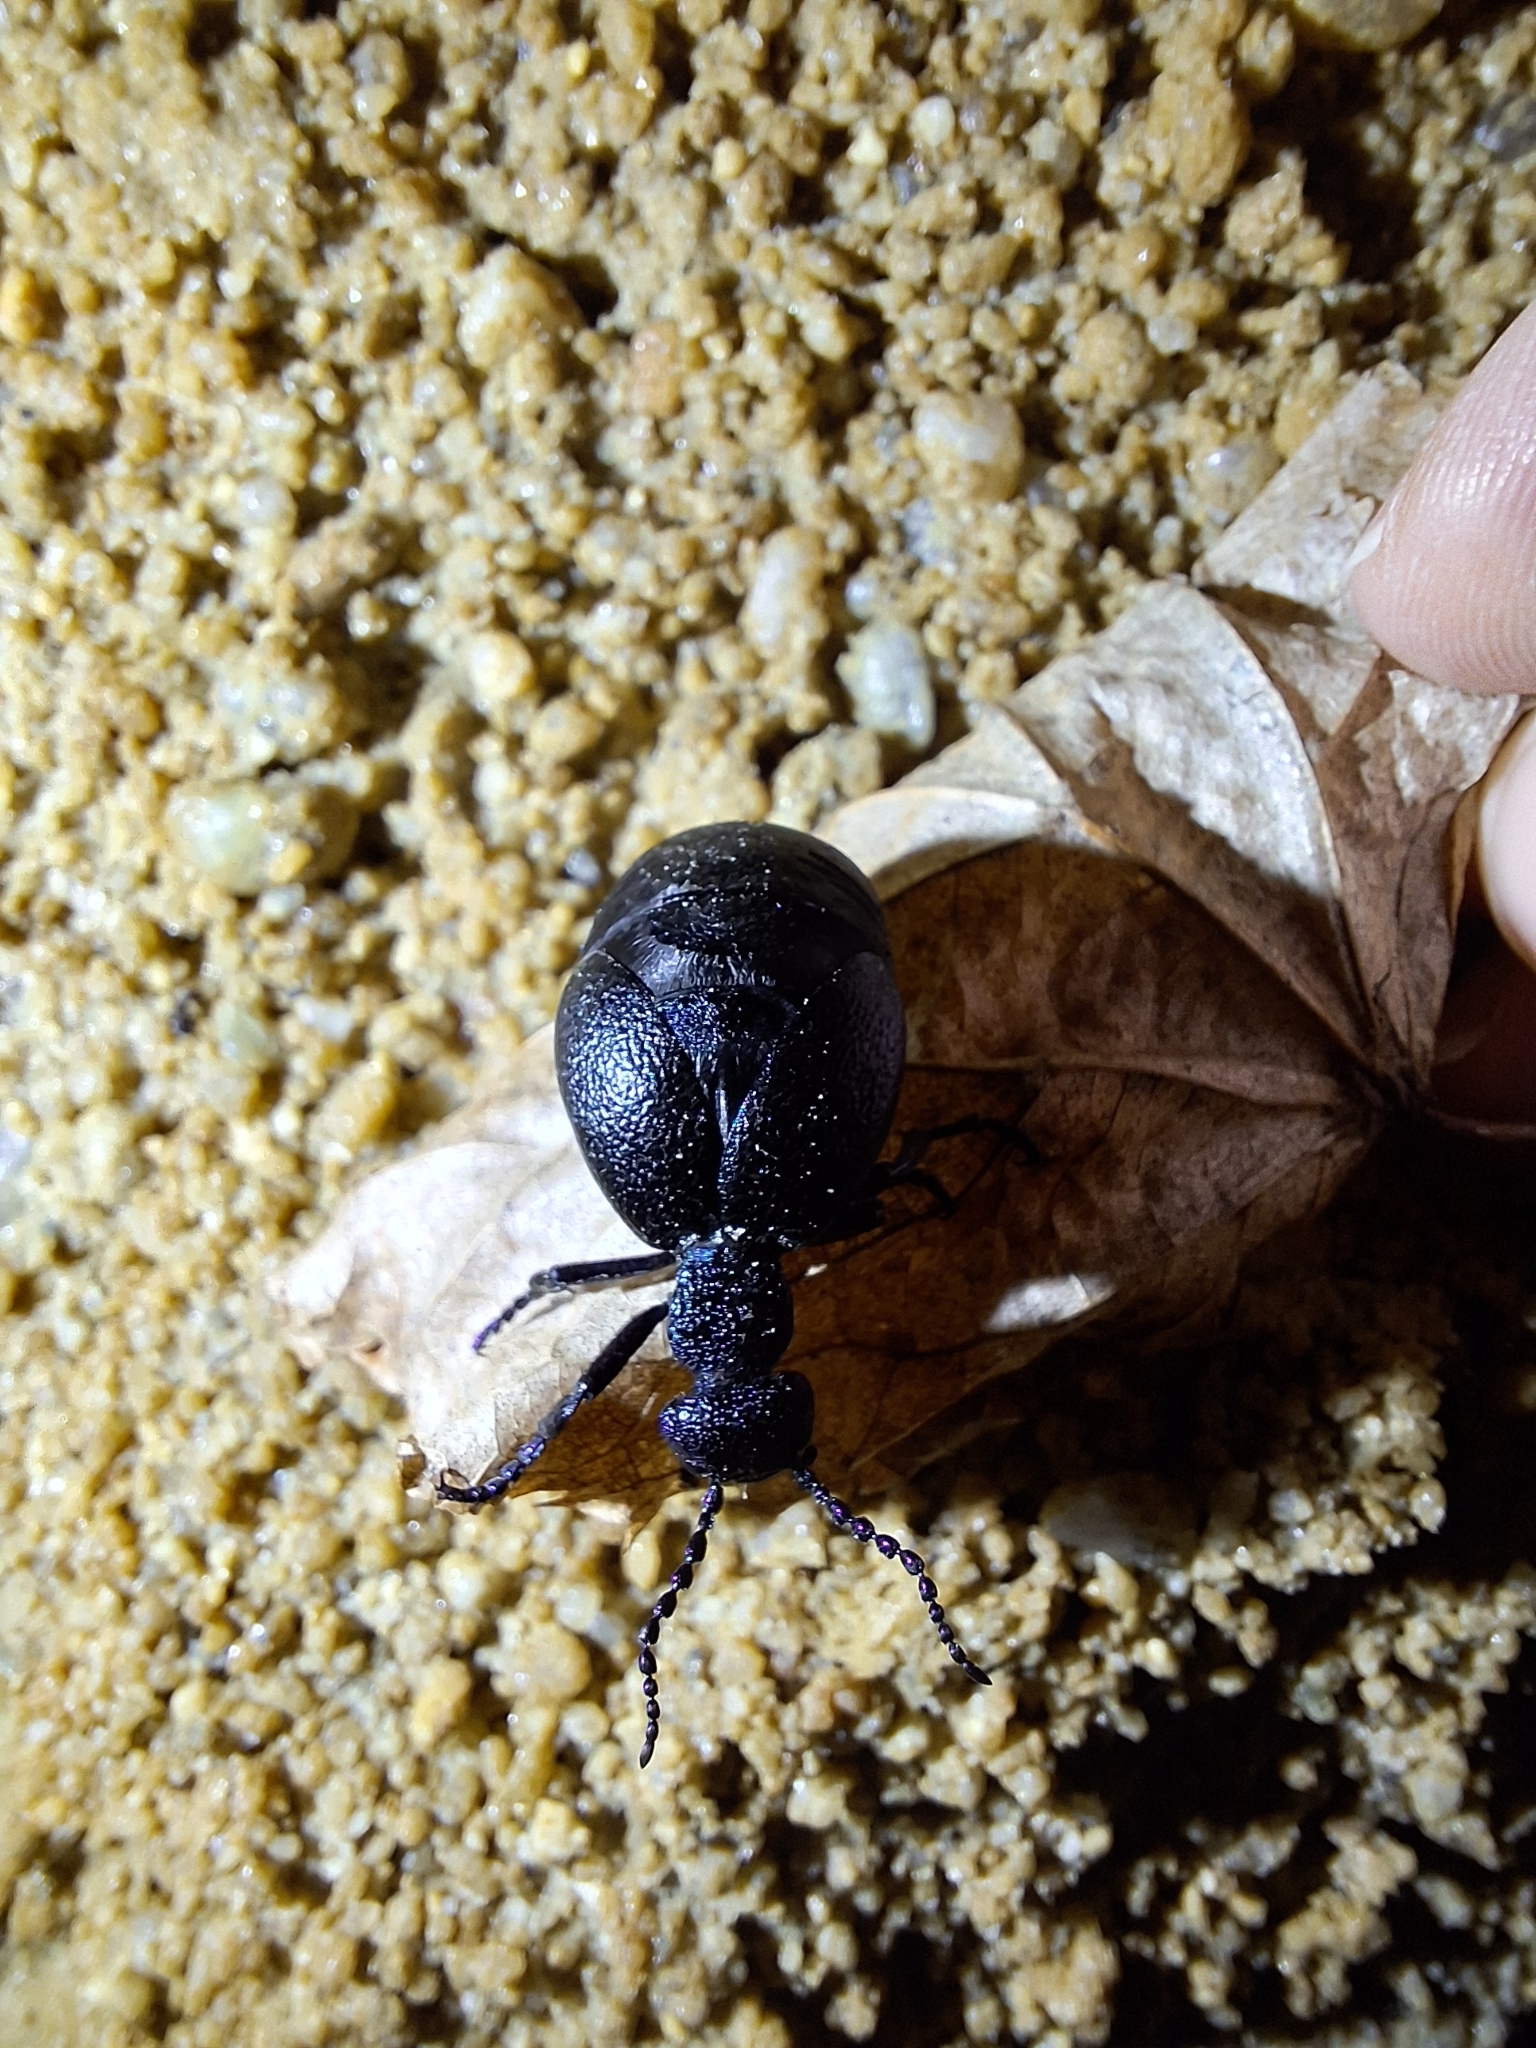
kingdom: Animalia
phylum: Arthropoda
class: Insecta
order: Coleoptera
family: Meloidae
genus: Meloe
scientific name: Meloe proscarabaeus
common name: Black oil-beetle
